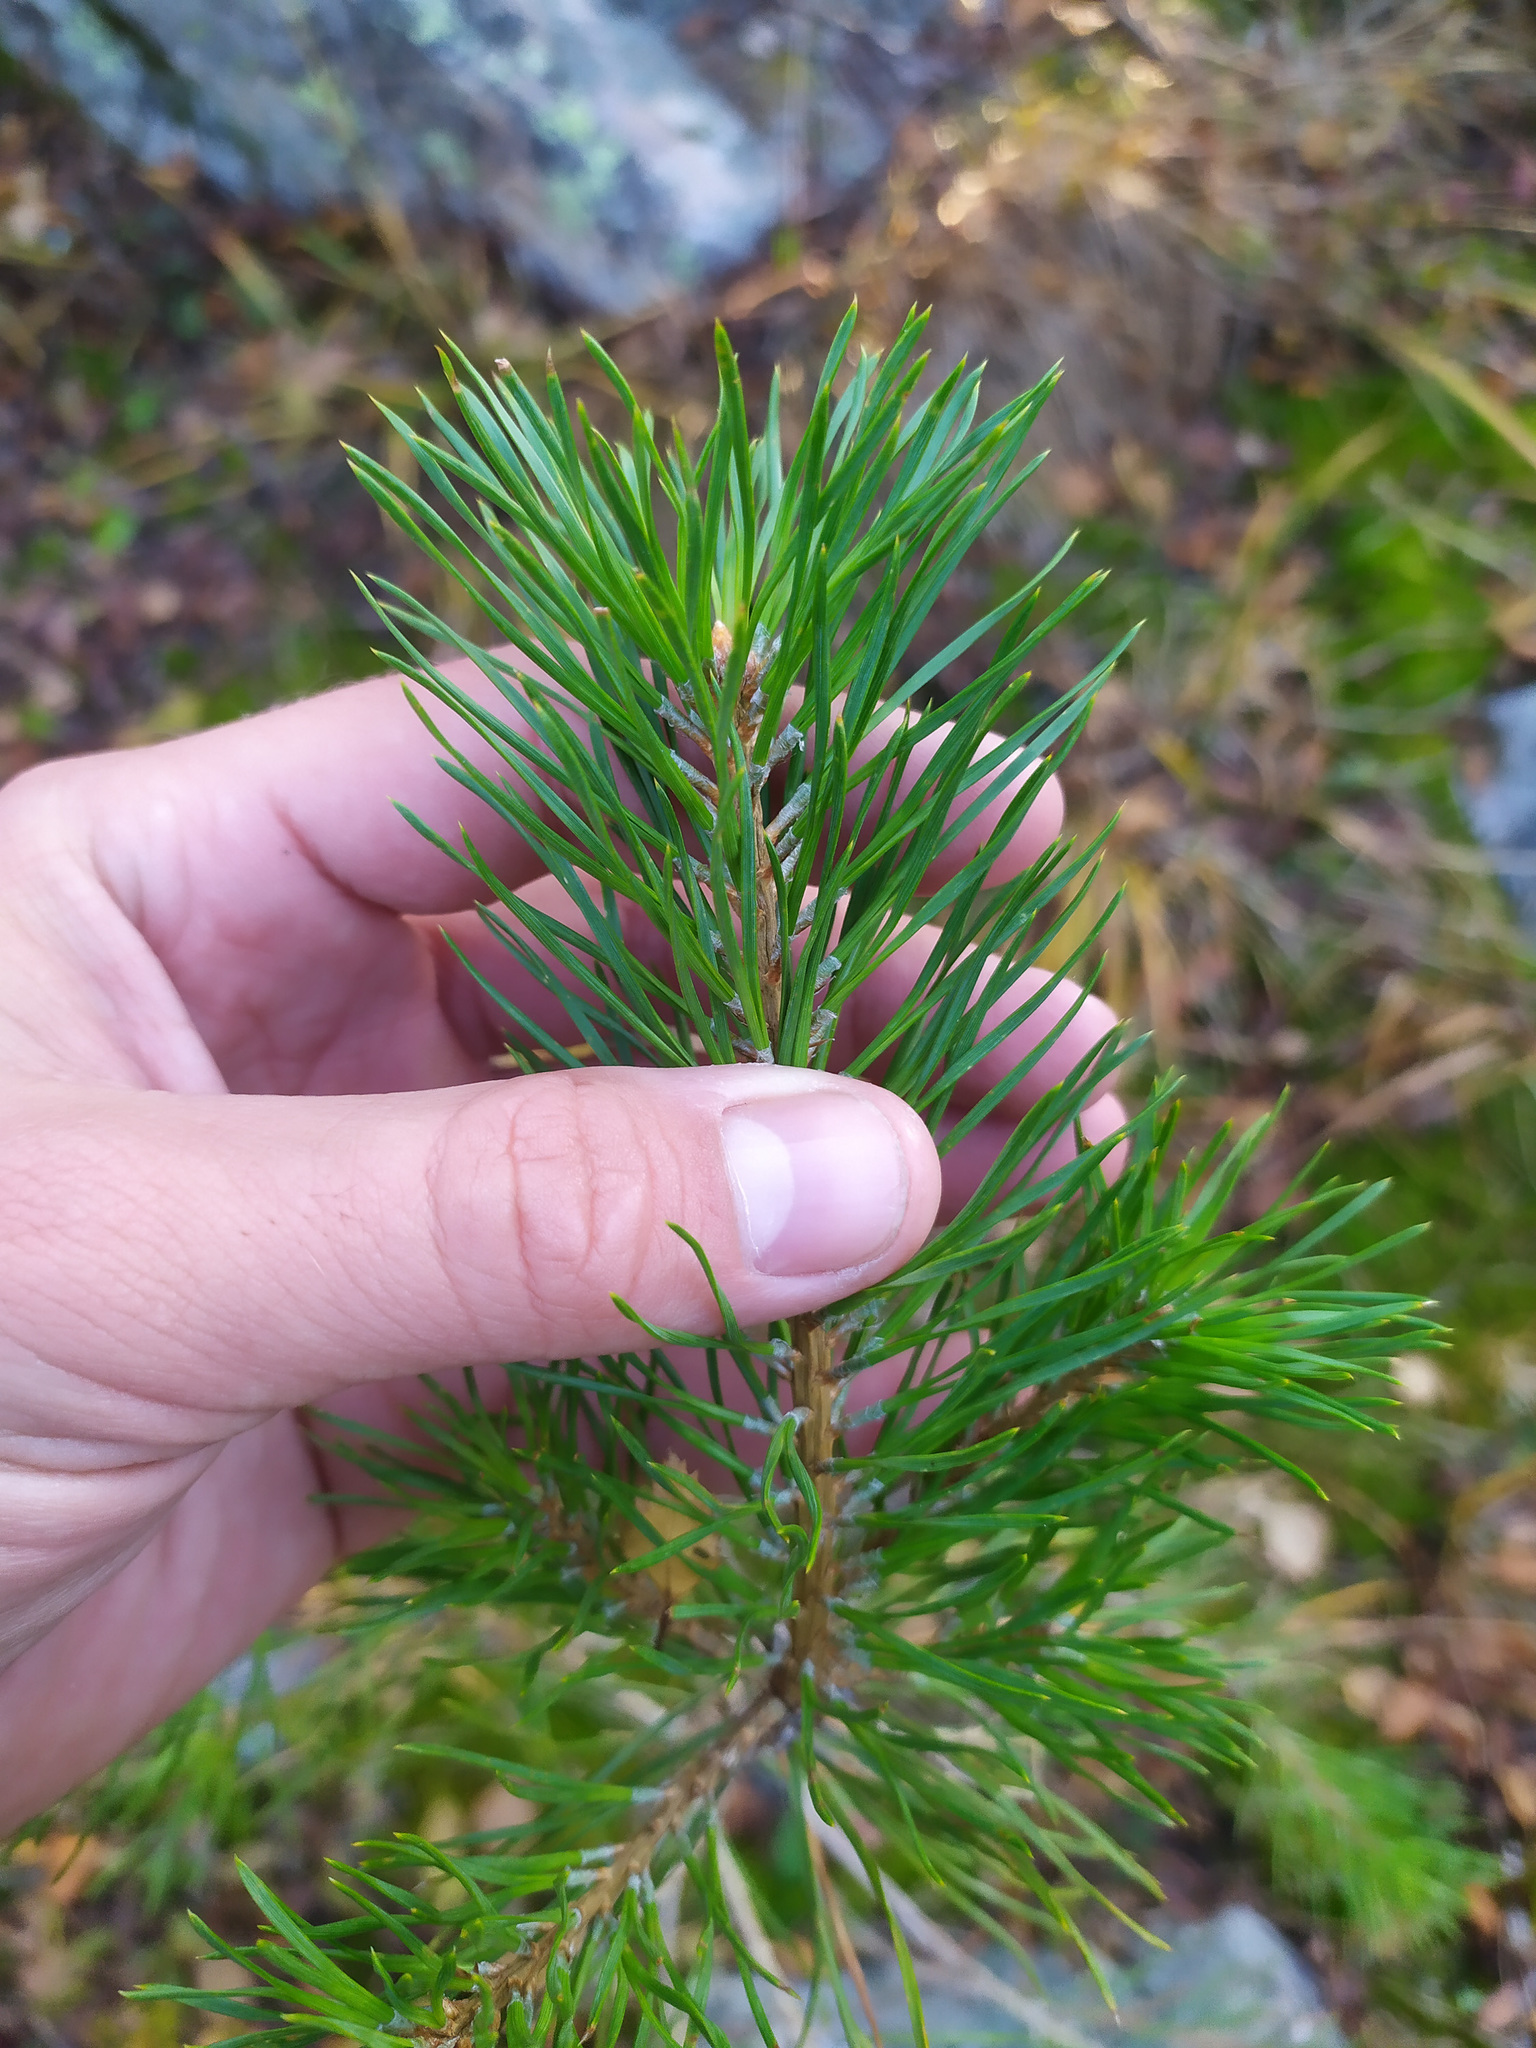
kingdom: Plantae
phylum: Tracheophyta
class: Pinopsida
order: Pinales
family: Pinaceae
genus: Pinus
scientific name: Pinus sylvestris
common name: Scots pine
